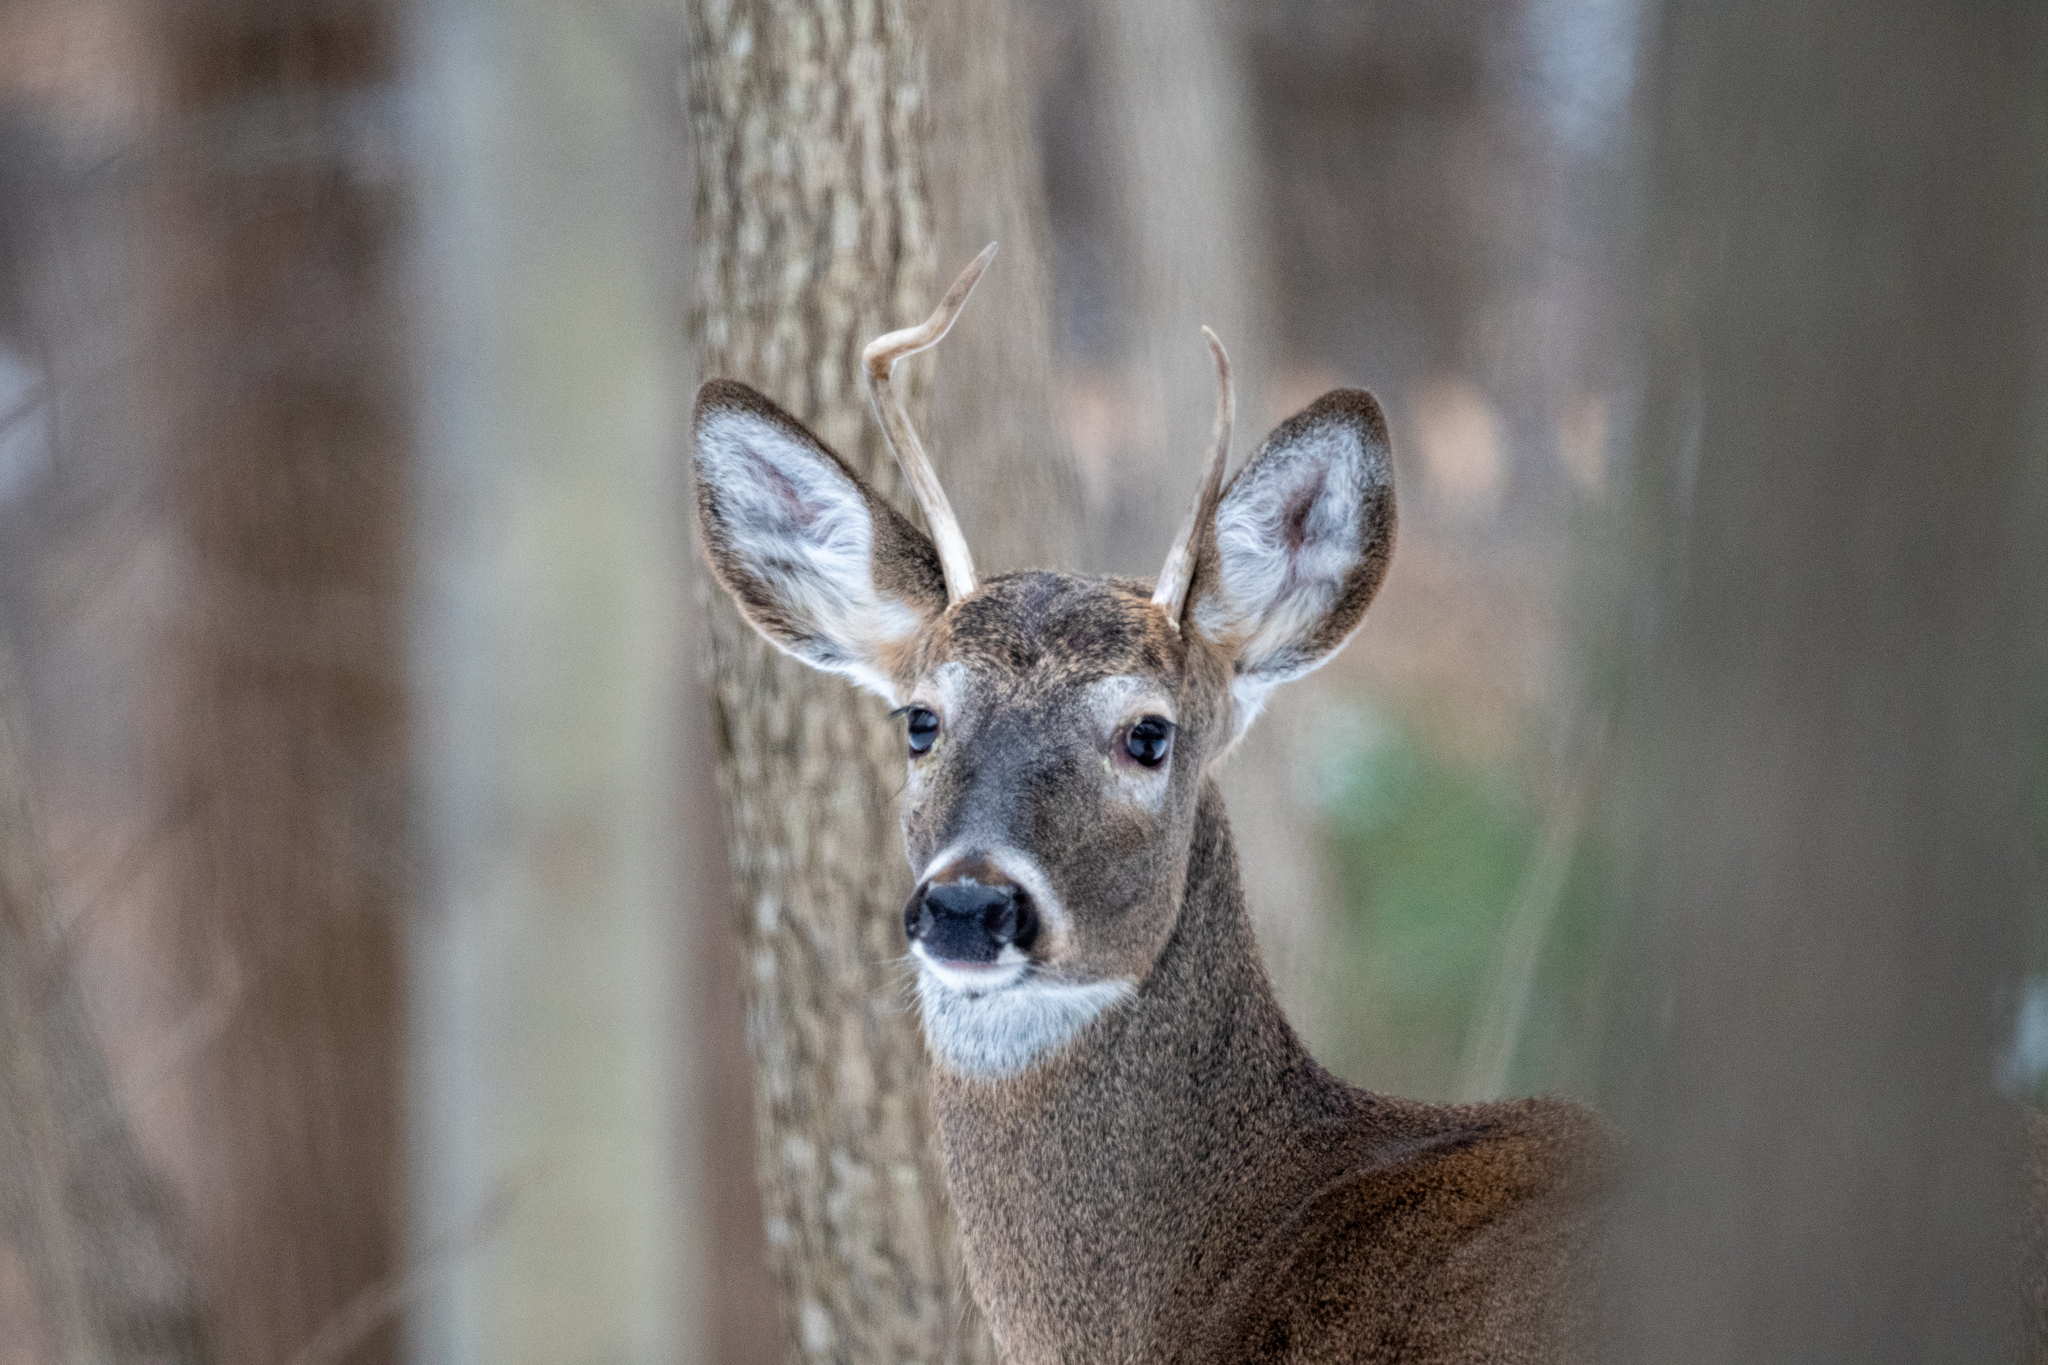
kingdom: Animalia
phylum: Chordata
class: Mammalia
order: Artiodactyla
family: Cervidae
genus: Odocoileus
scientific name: Odocoileus virginianus
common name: White-tailed deer
